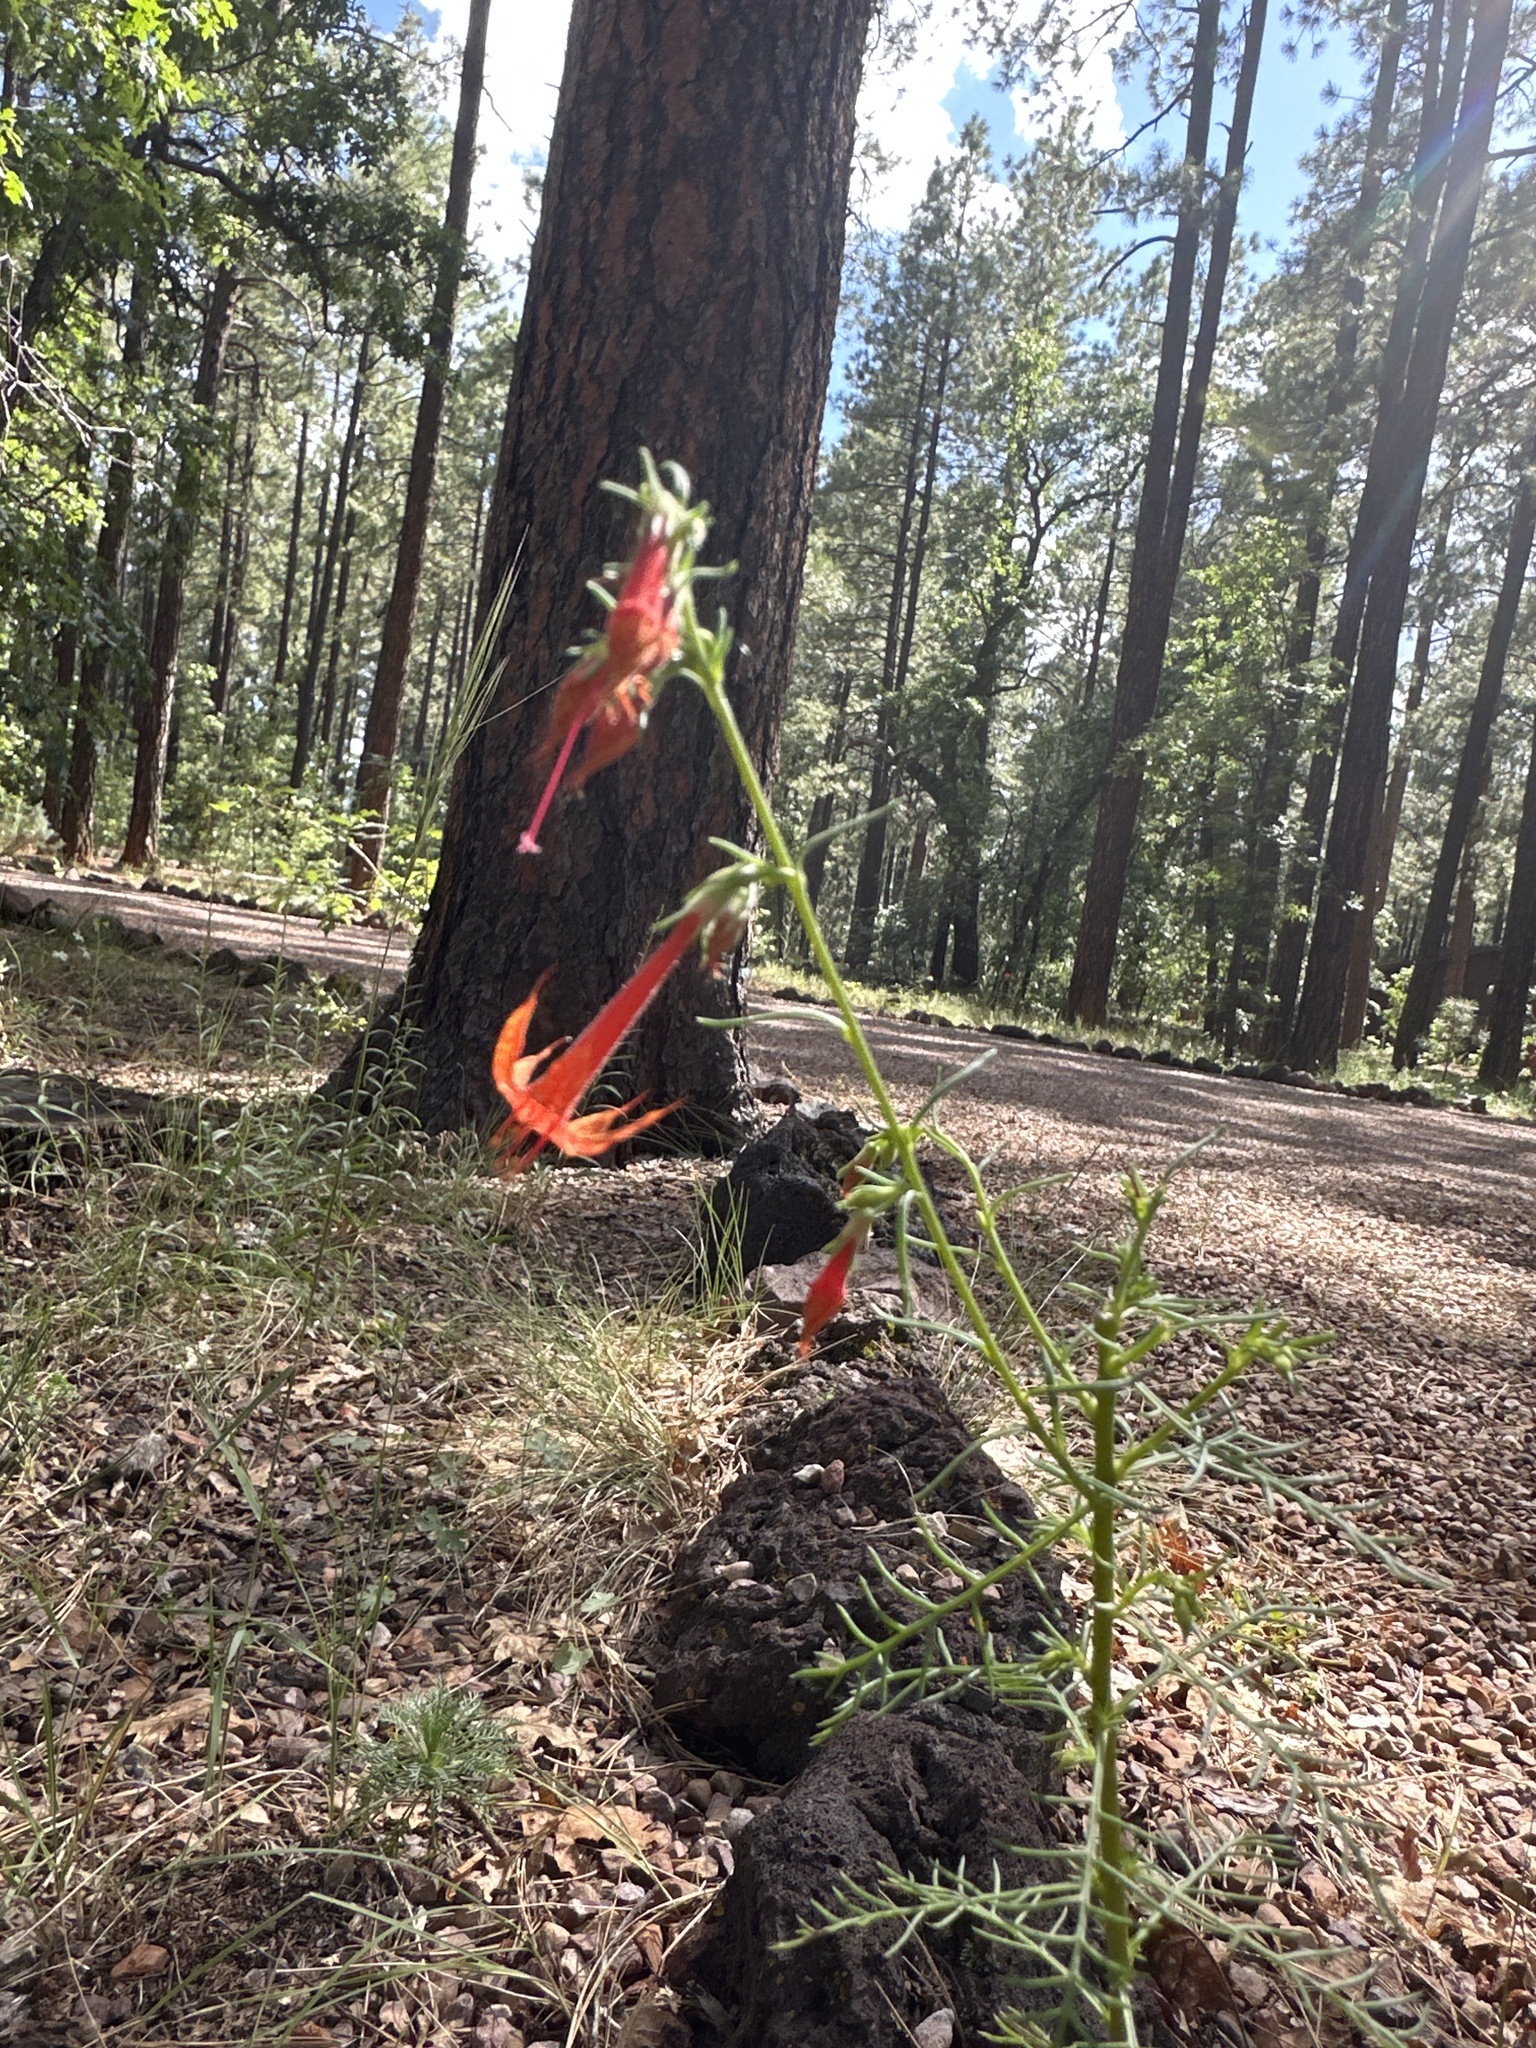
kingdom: Plantae
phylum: Tracheophyta
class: Magnoliopsida
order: Ericales
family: Polemoniaceae
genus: Ipomopsis
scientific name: Ipomopsis aggregata
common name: Scarlet gilia
